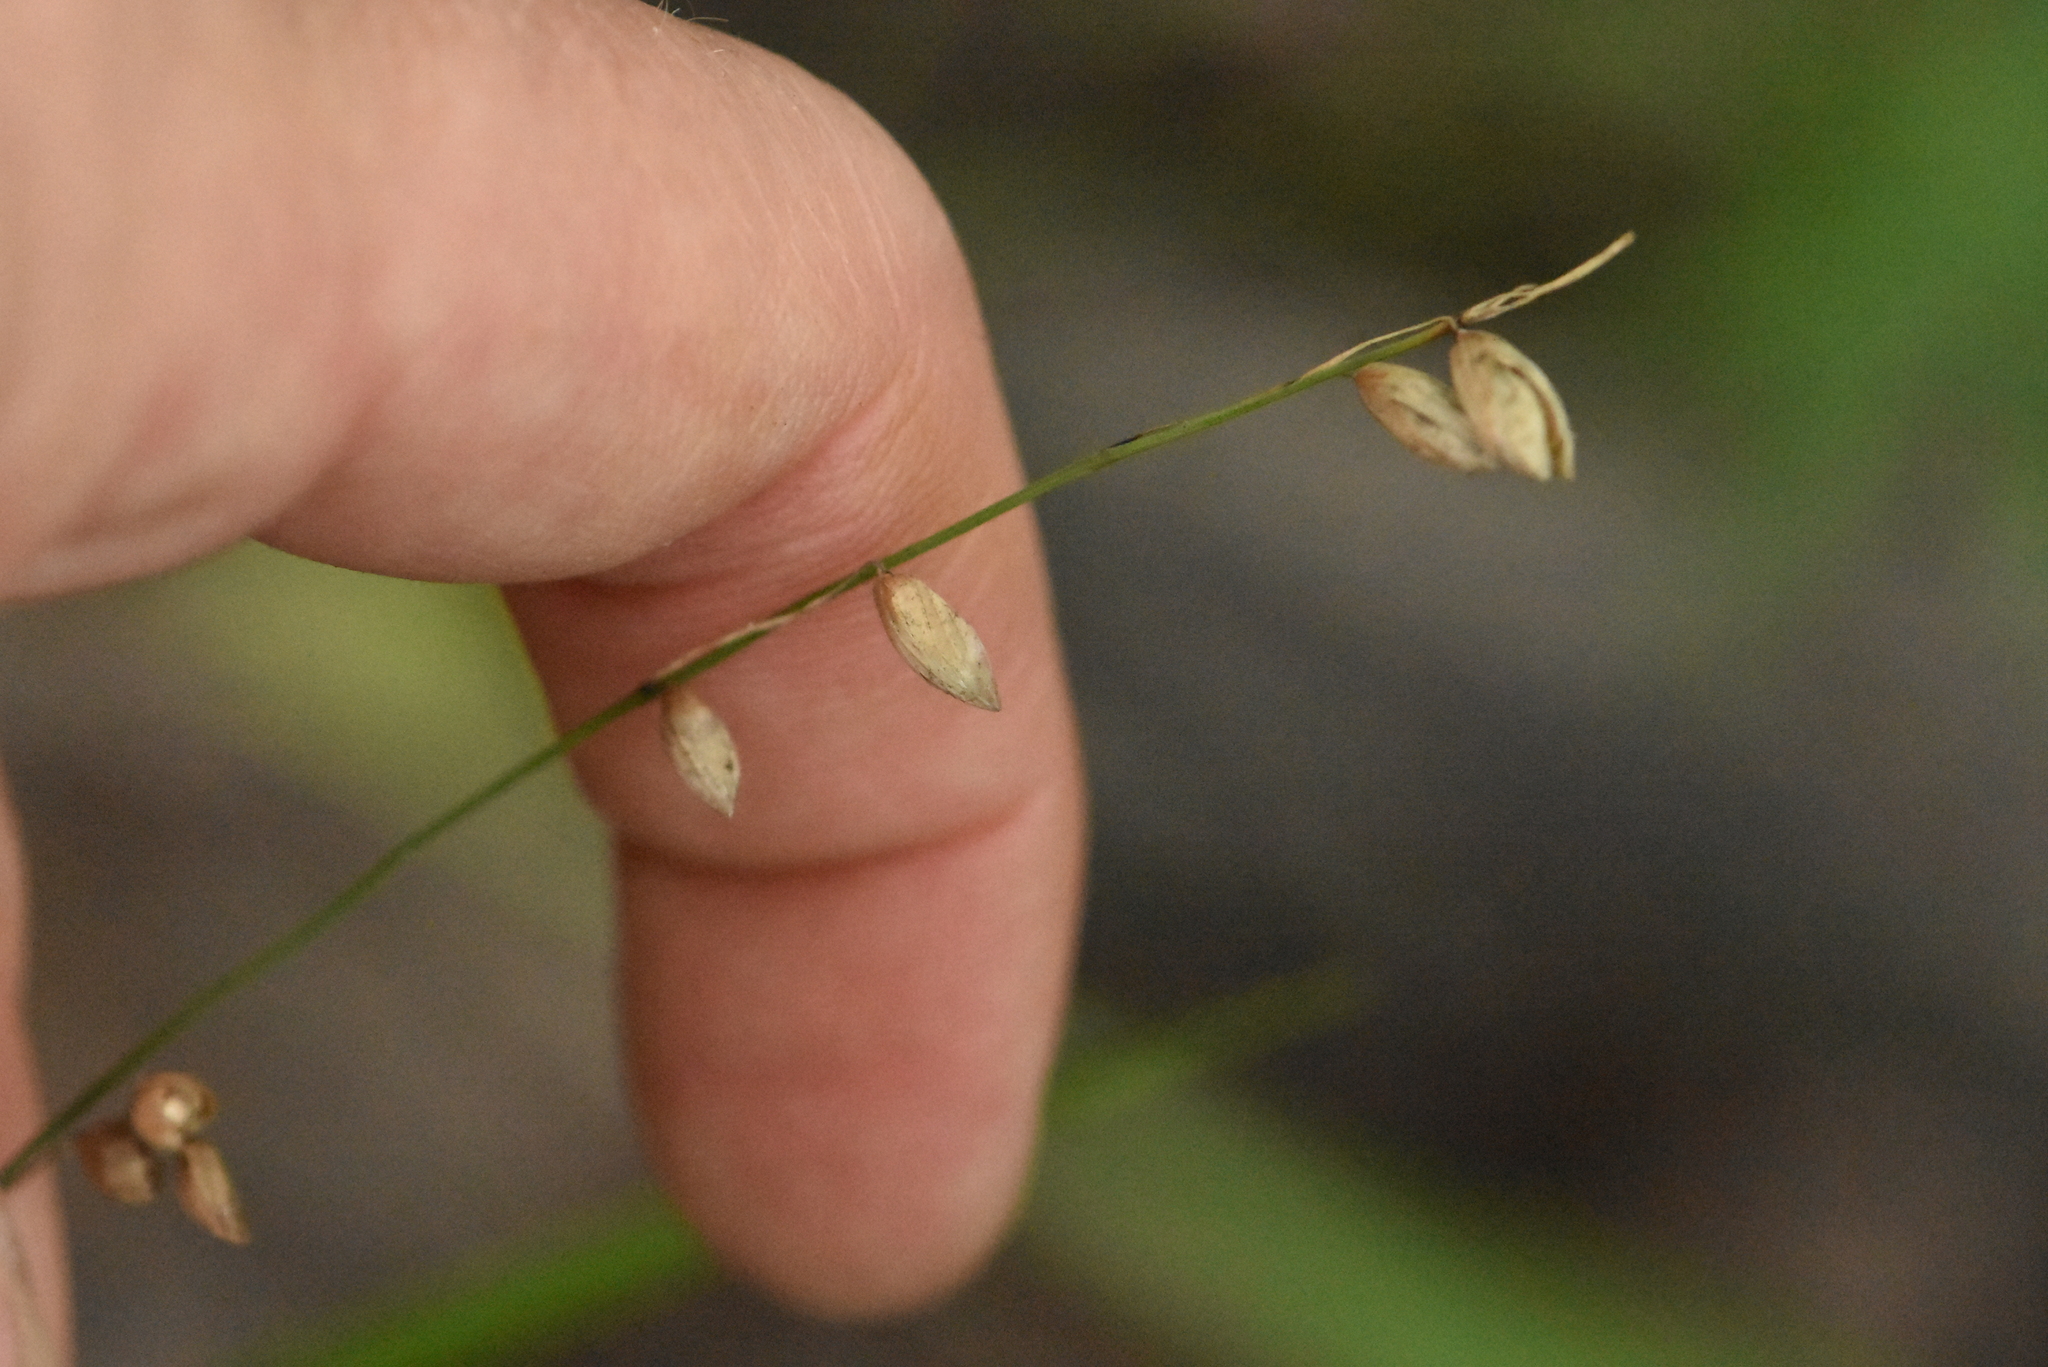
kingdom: Plantae
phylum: Tracheophyta
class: Liliopsida
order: Poales
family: Poaceae
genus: Melica
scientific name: Melica nutans
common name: Mountain melick
